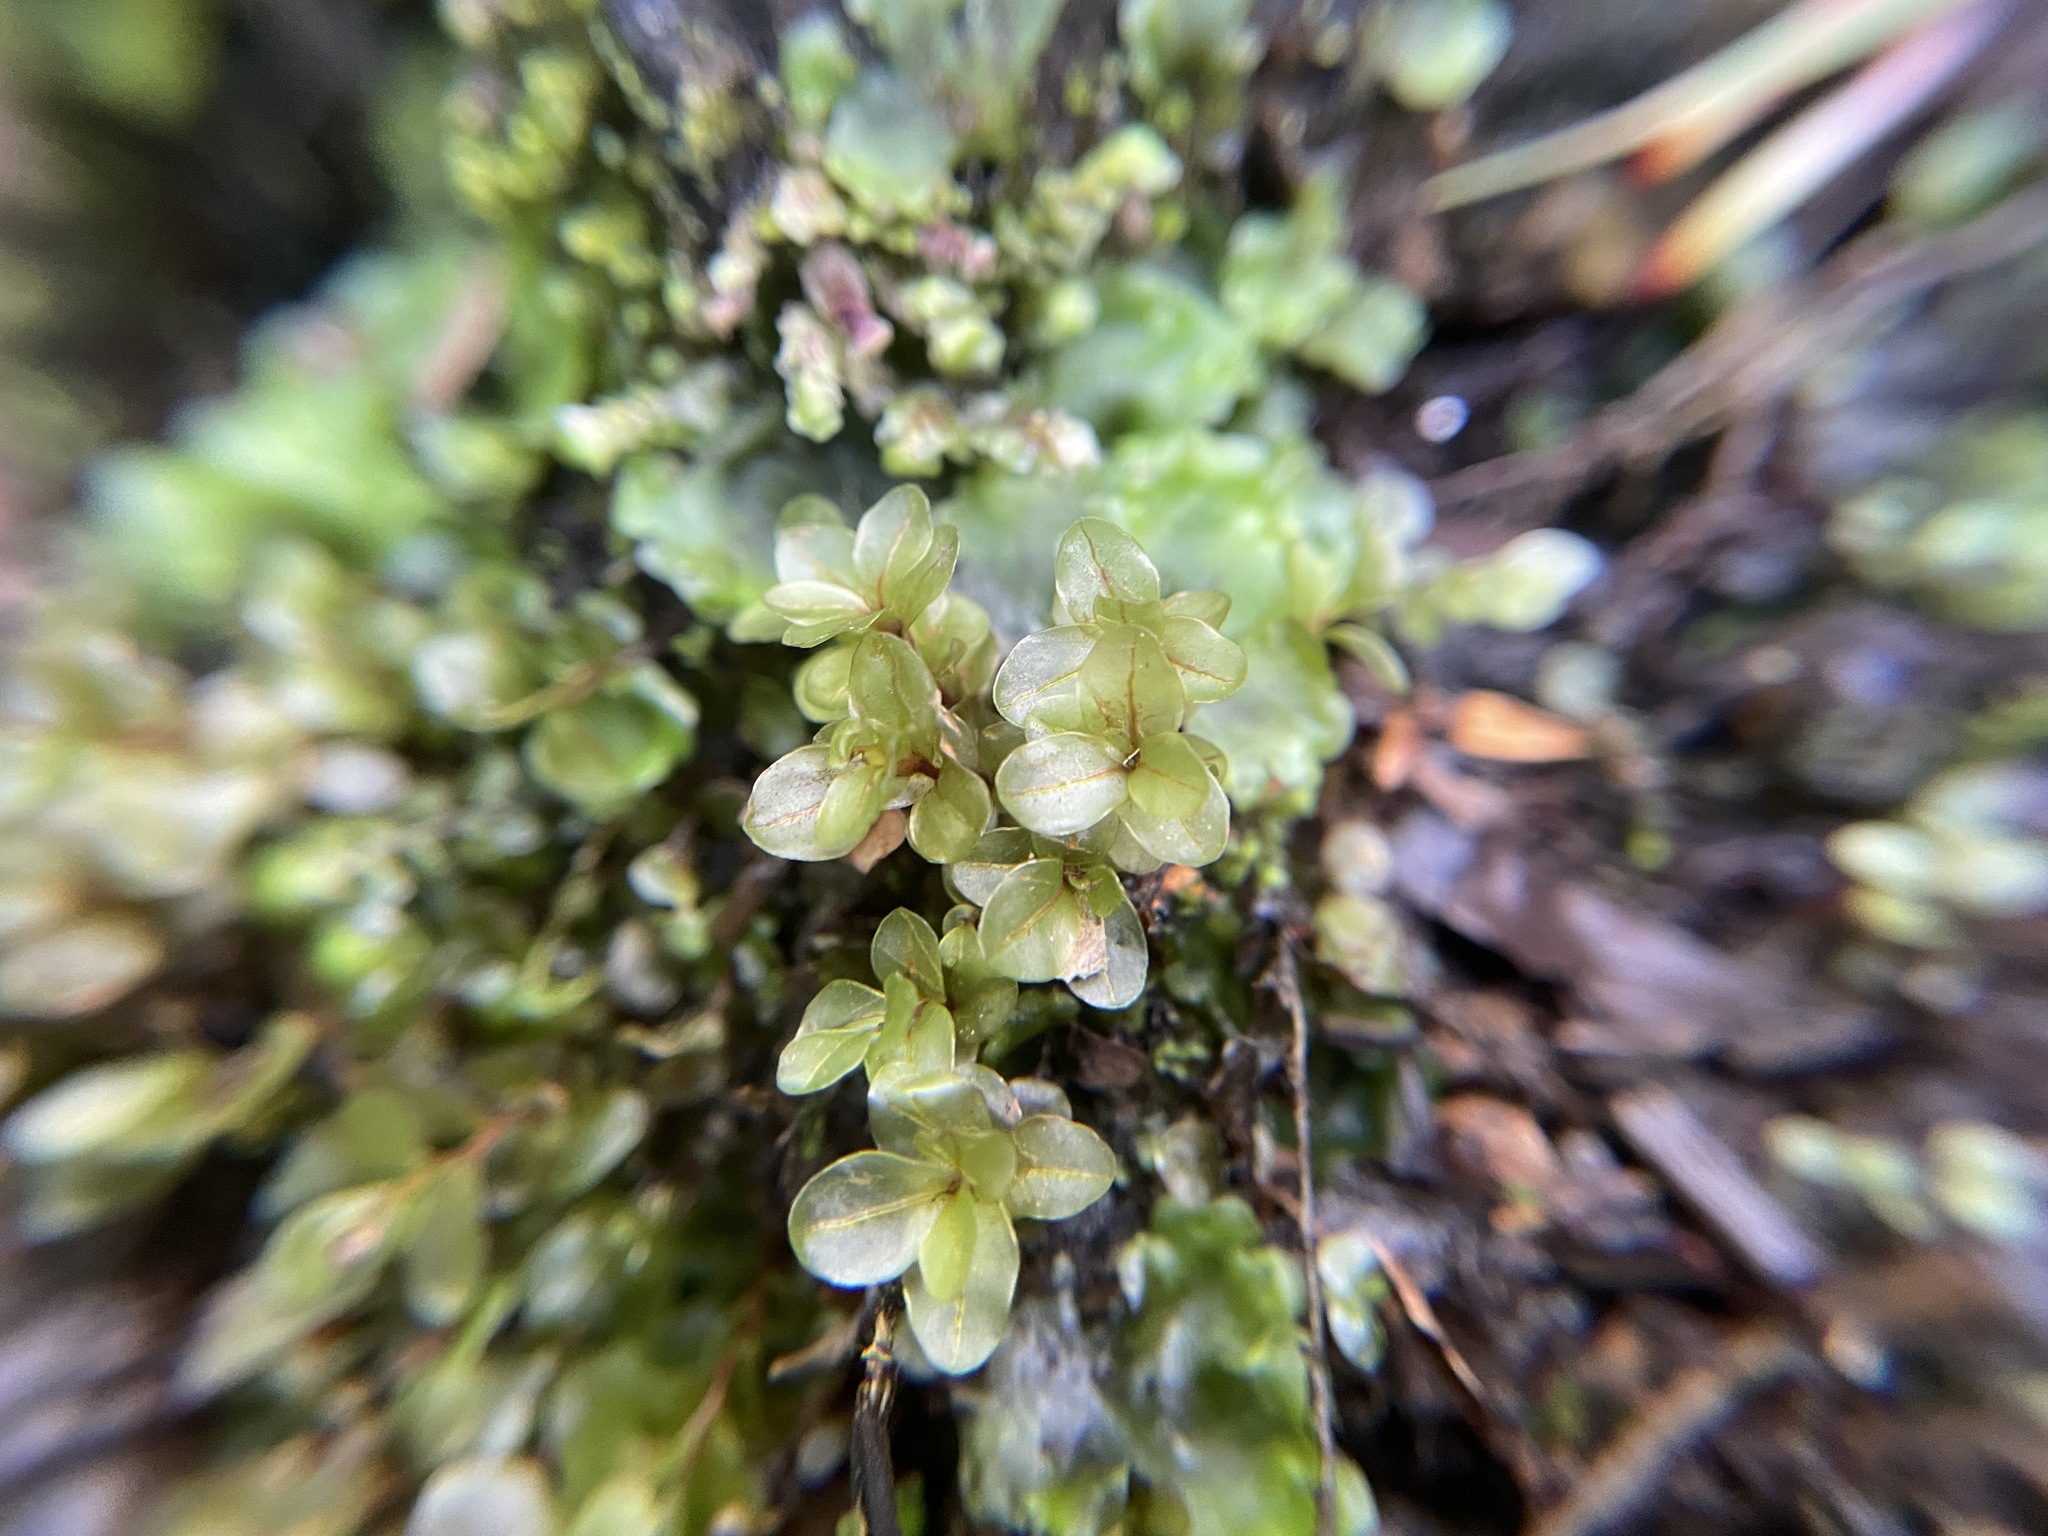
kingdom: Plantae
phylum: Bryophyta
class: Bryopsida
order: Bryales
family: Mniaceae
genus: Rhizomnium
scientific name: Rhizomnium punctatum
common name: Dotted leafy moss
